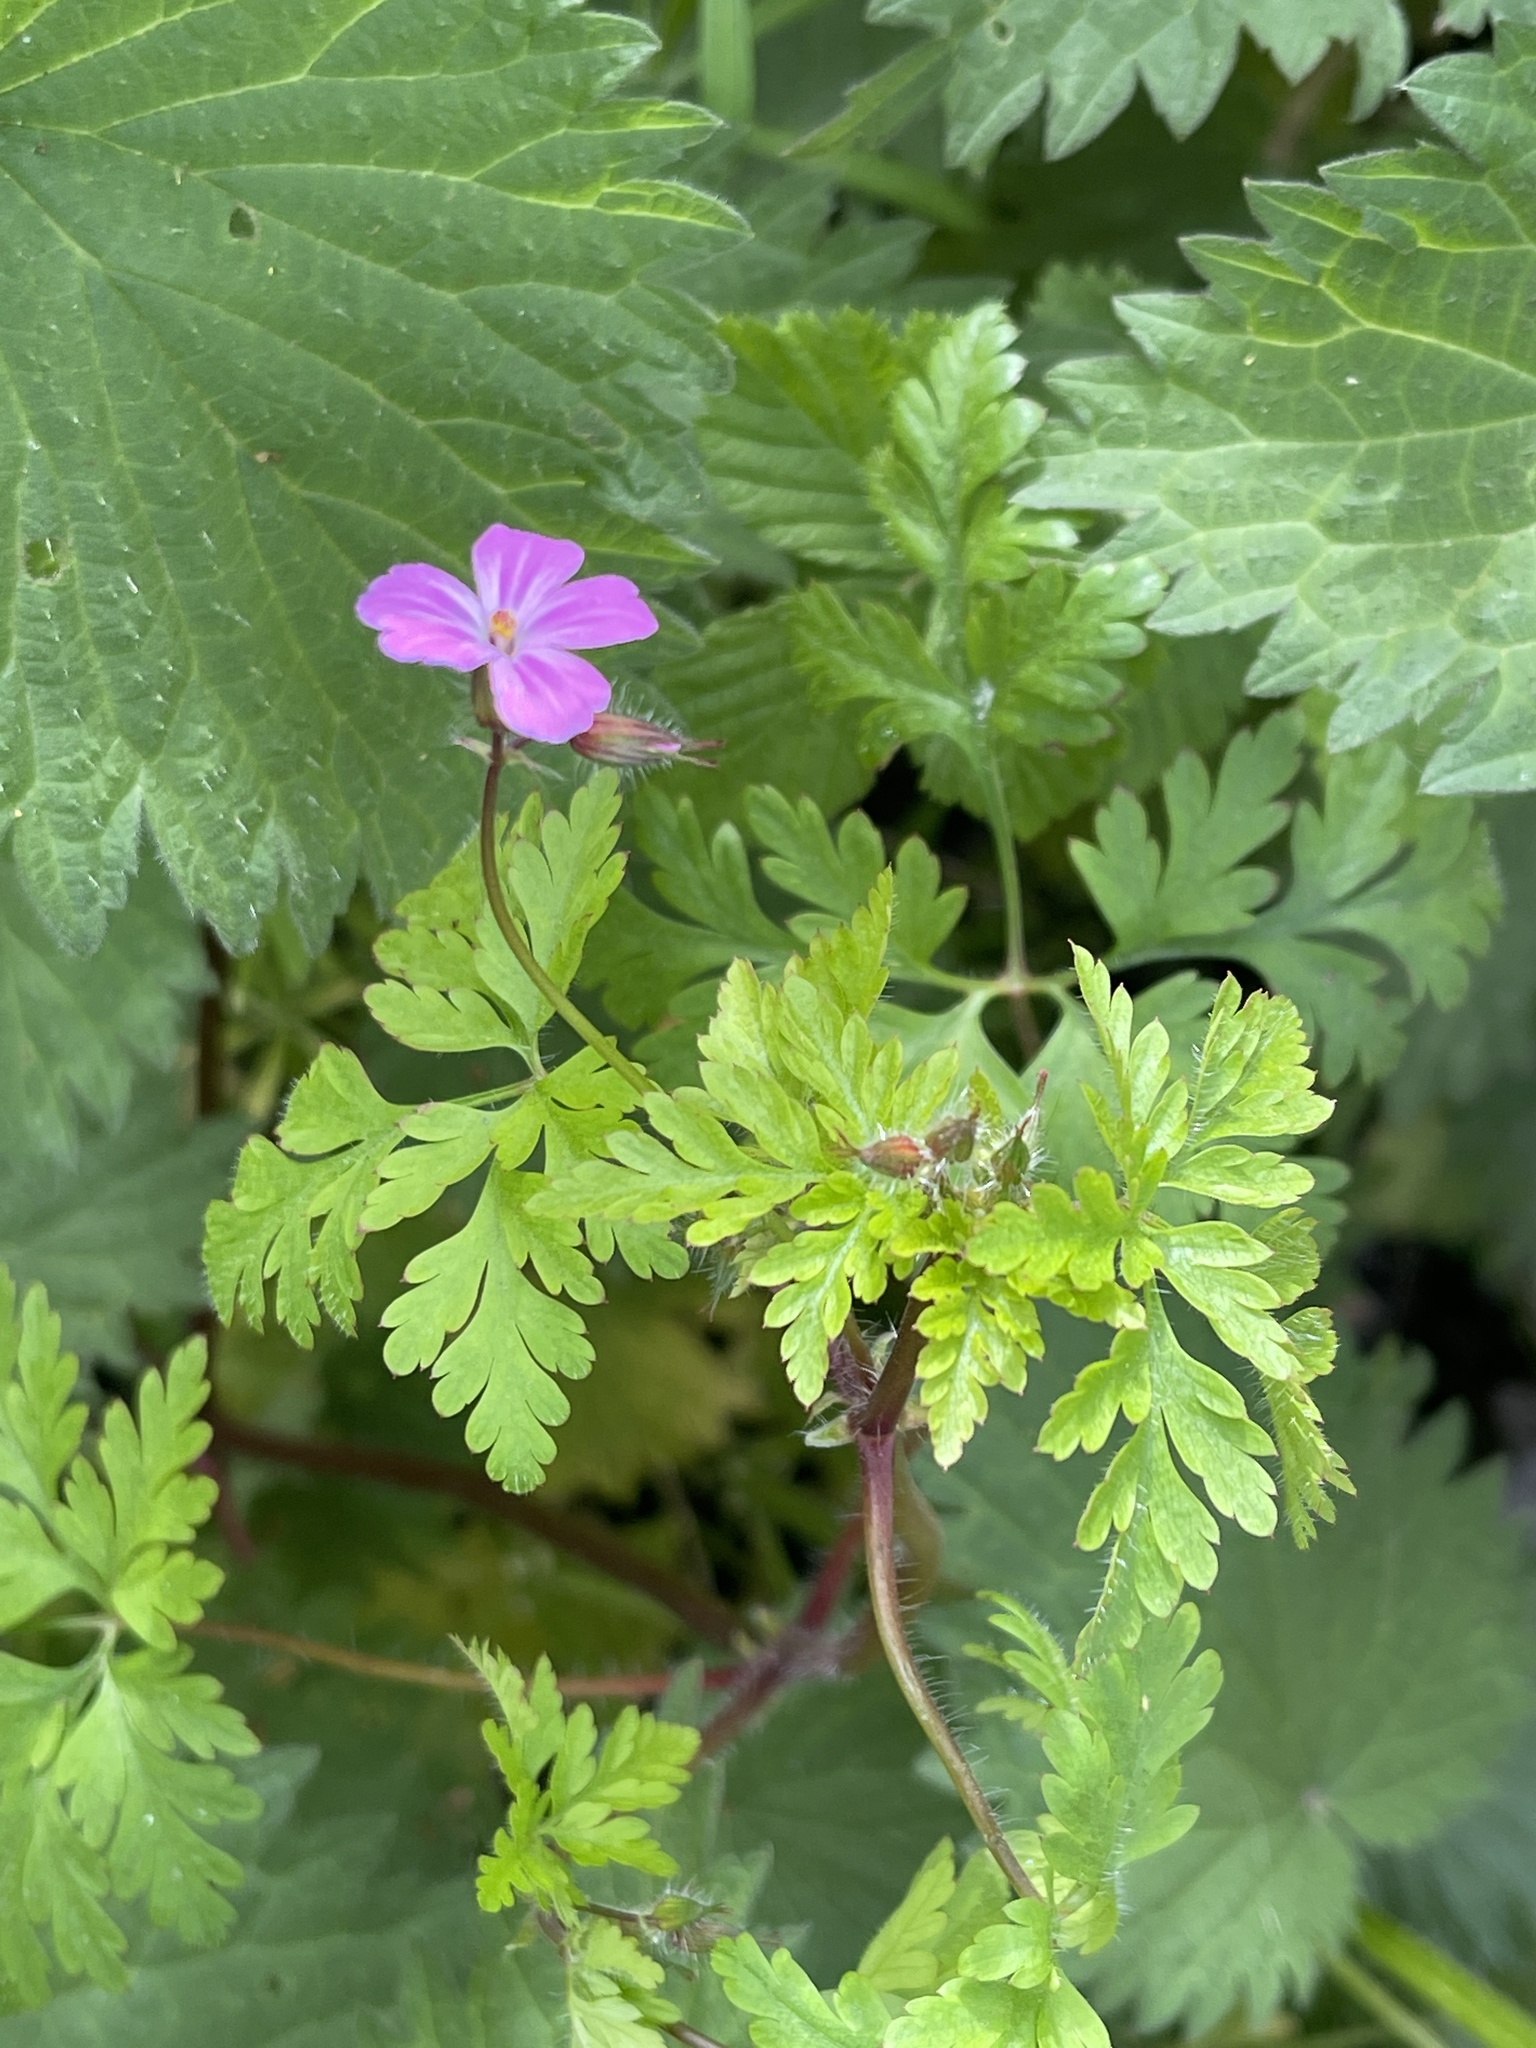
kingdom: Plantae
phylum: Tracheophyta
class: Magnoliopsida
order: Geraniales
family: Geraniaceae
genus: Geranium
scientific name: Geranium robertianum
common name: Herb-robert
